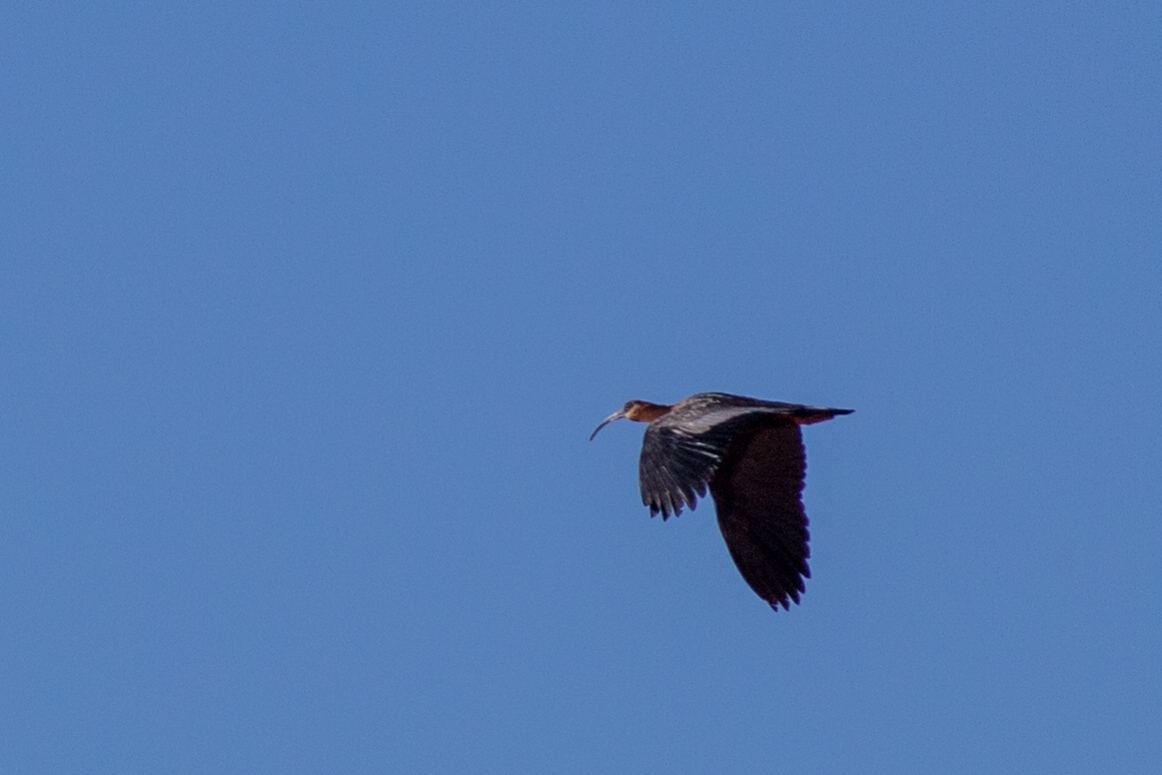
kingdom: Animalia
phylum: Chordata
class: Aves
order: Pelecaniformes
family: Threskiornithidae
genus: Theristicus
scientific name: Theristicus caudatus
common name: Buff-necked ibis
